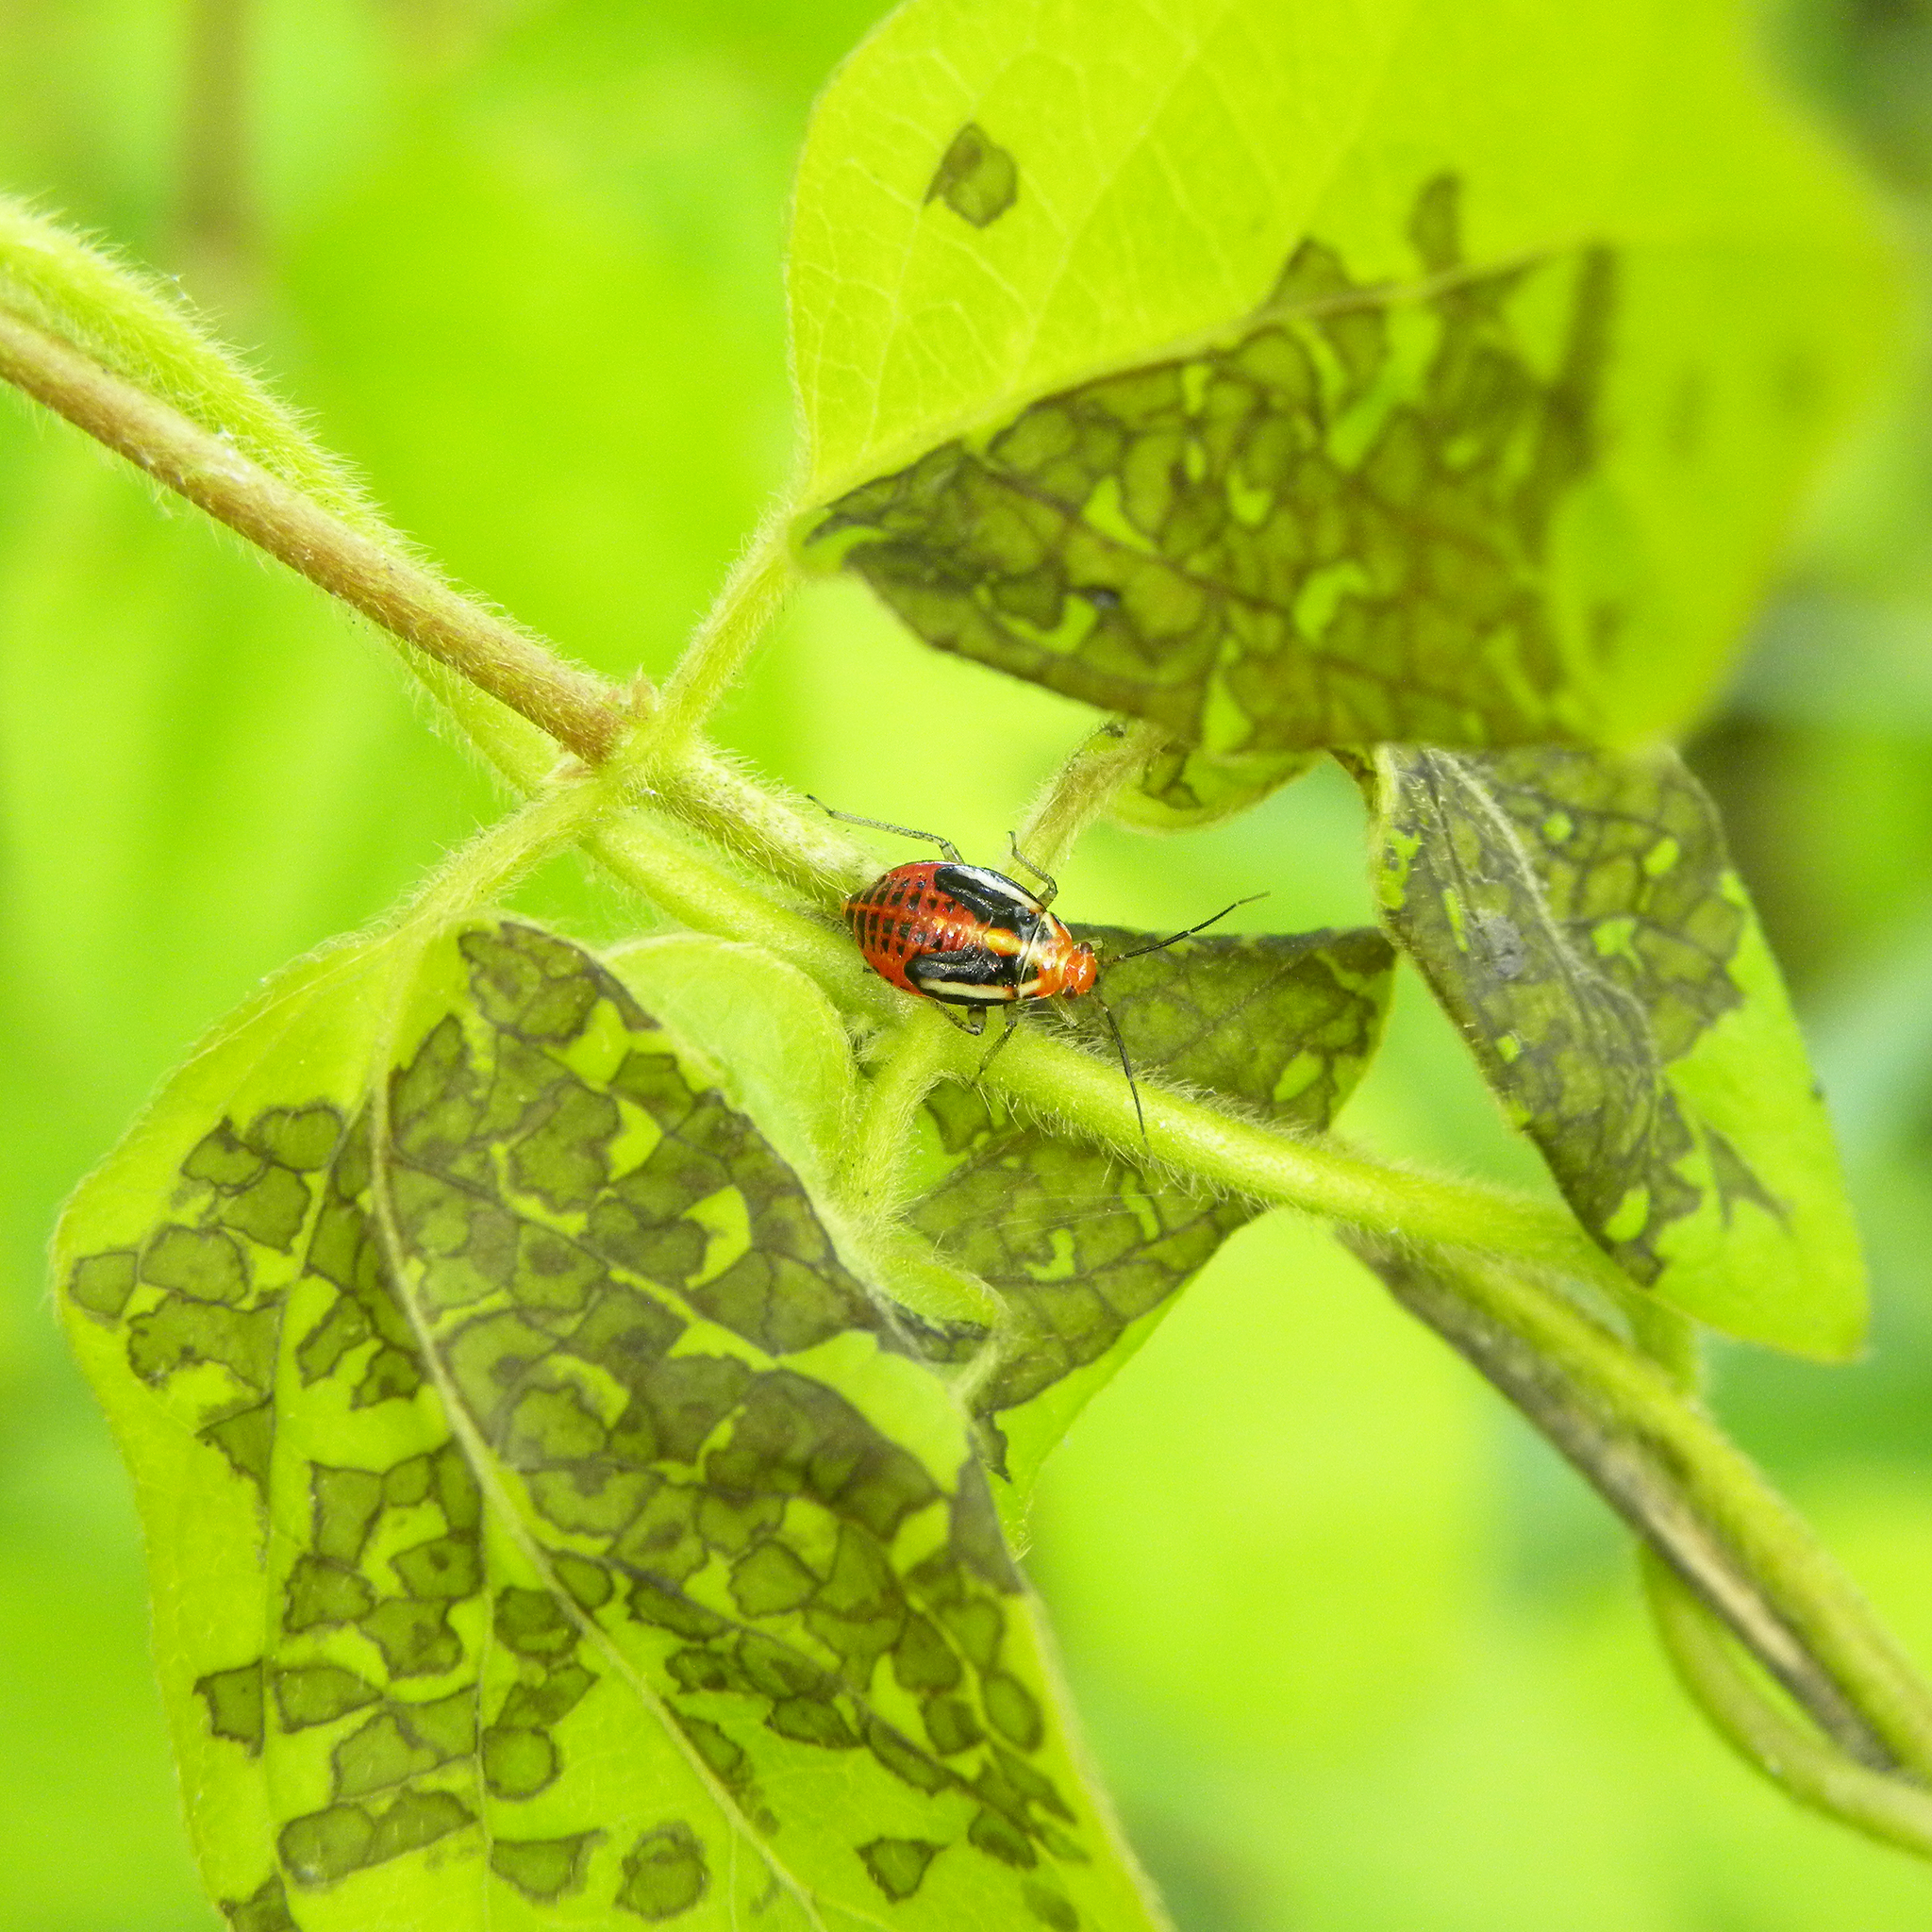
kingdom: Animalia
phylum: Arthropoda
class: Insecta
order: Hemiptera
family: Miridae
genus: Poecilocapsus
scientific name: Poecilocapsus lineatus
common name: Four-lined plant bug
